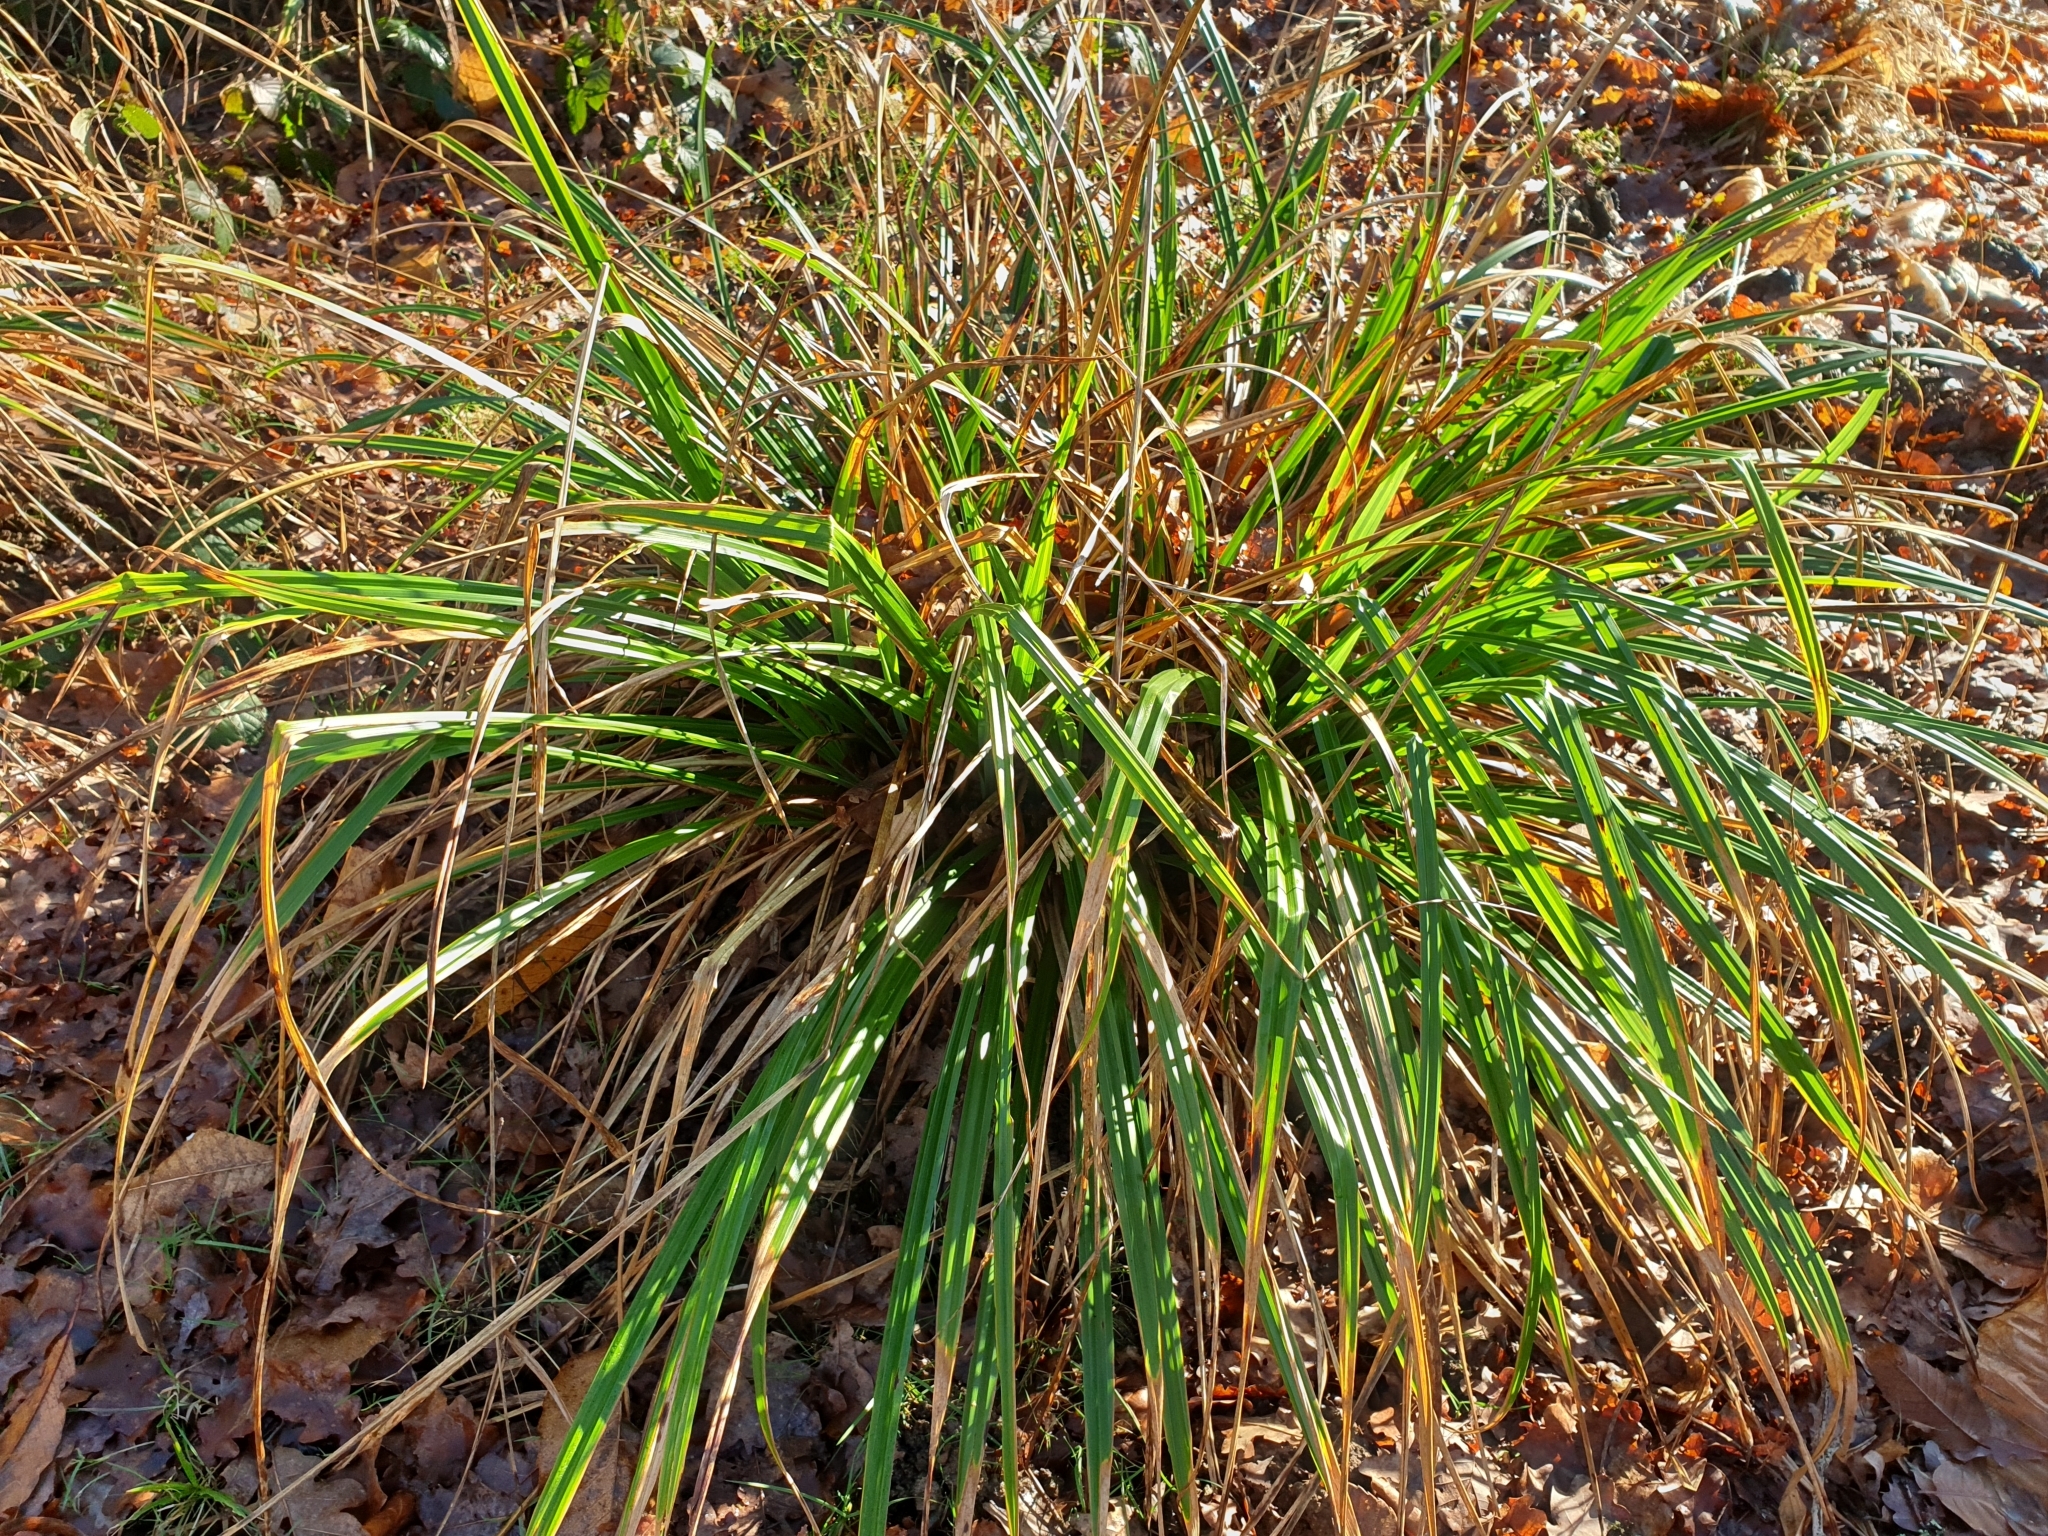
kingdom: Plantae
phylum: Tracheophyta
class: Liliopsida
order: Poales
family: Cyperaceae
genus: Carex
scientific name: Carex pendula
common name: Pendulous sedge
